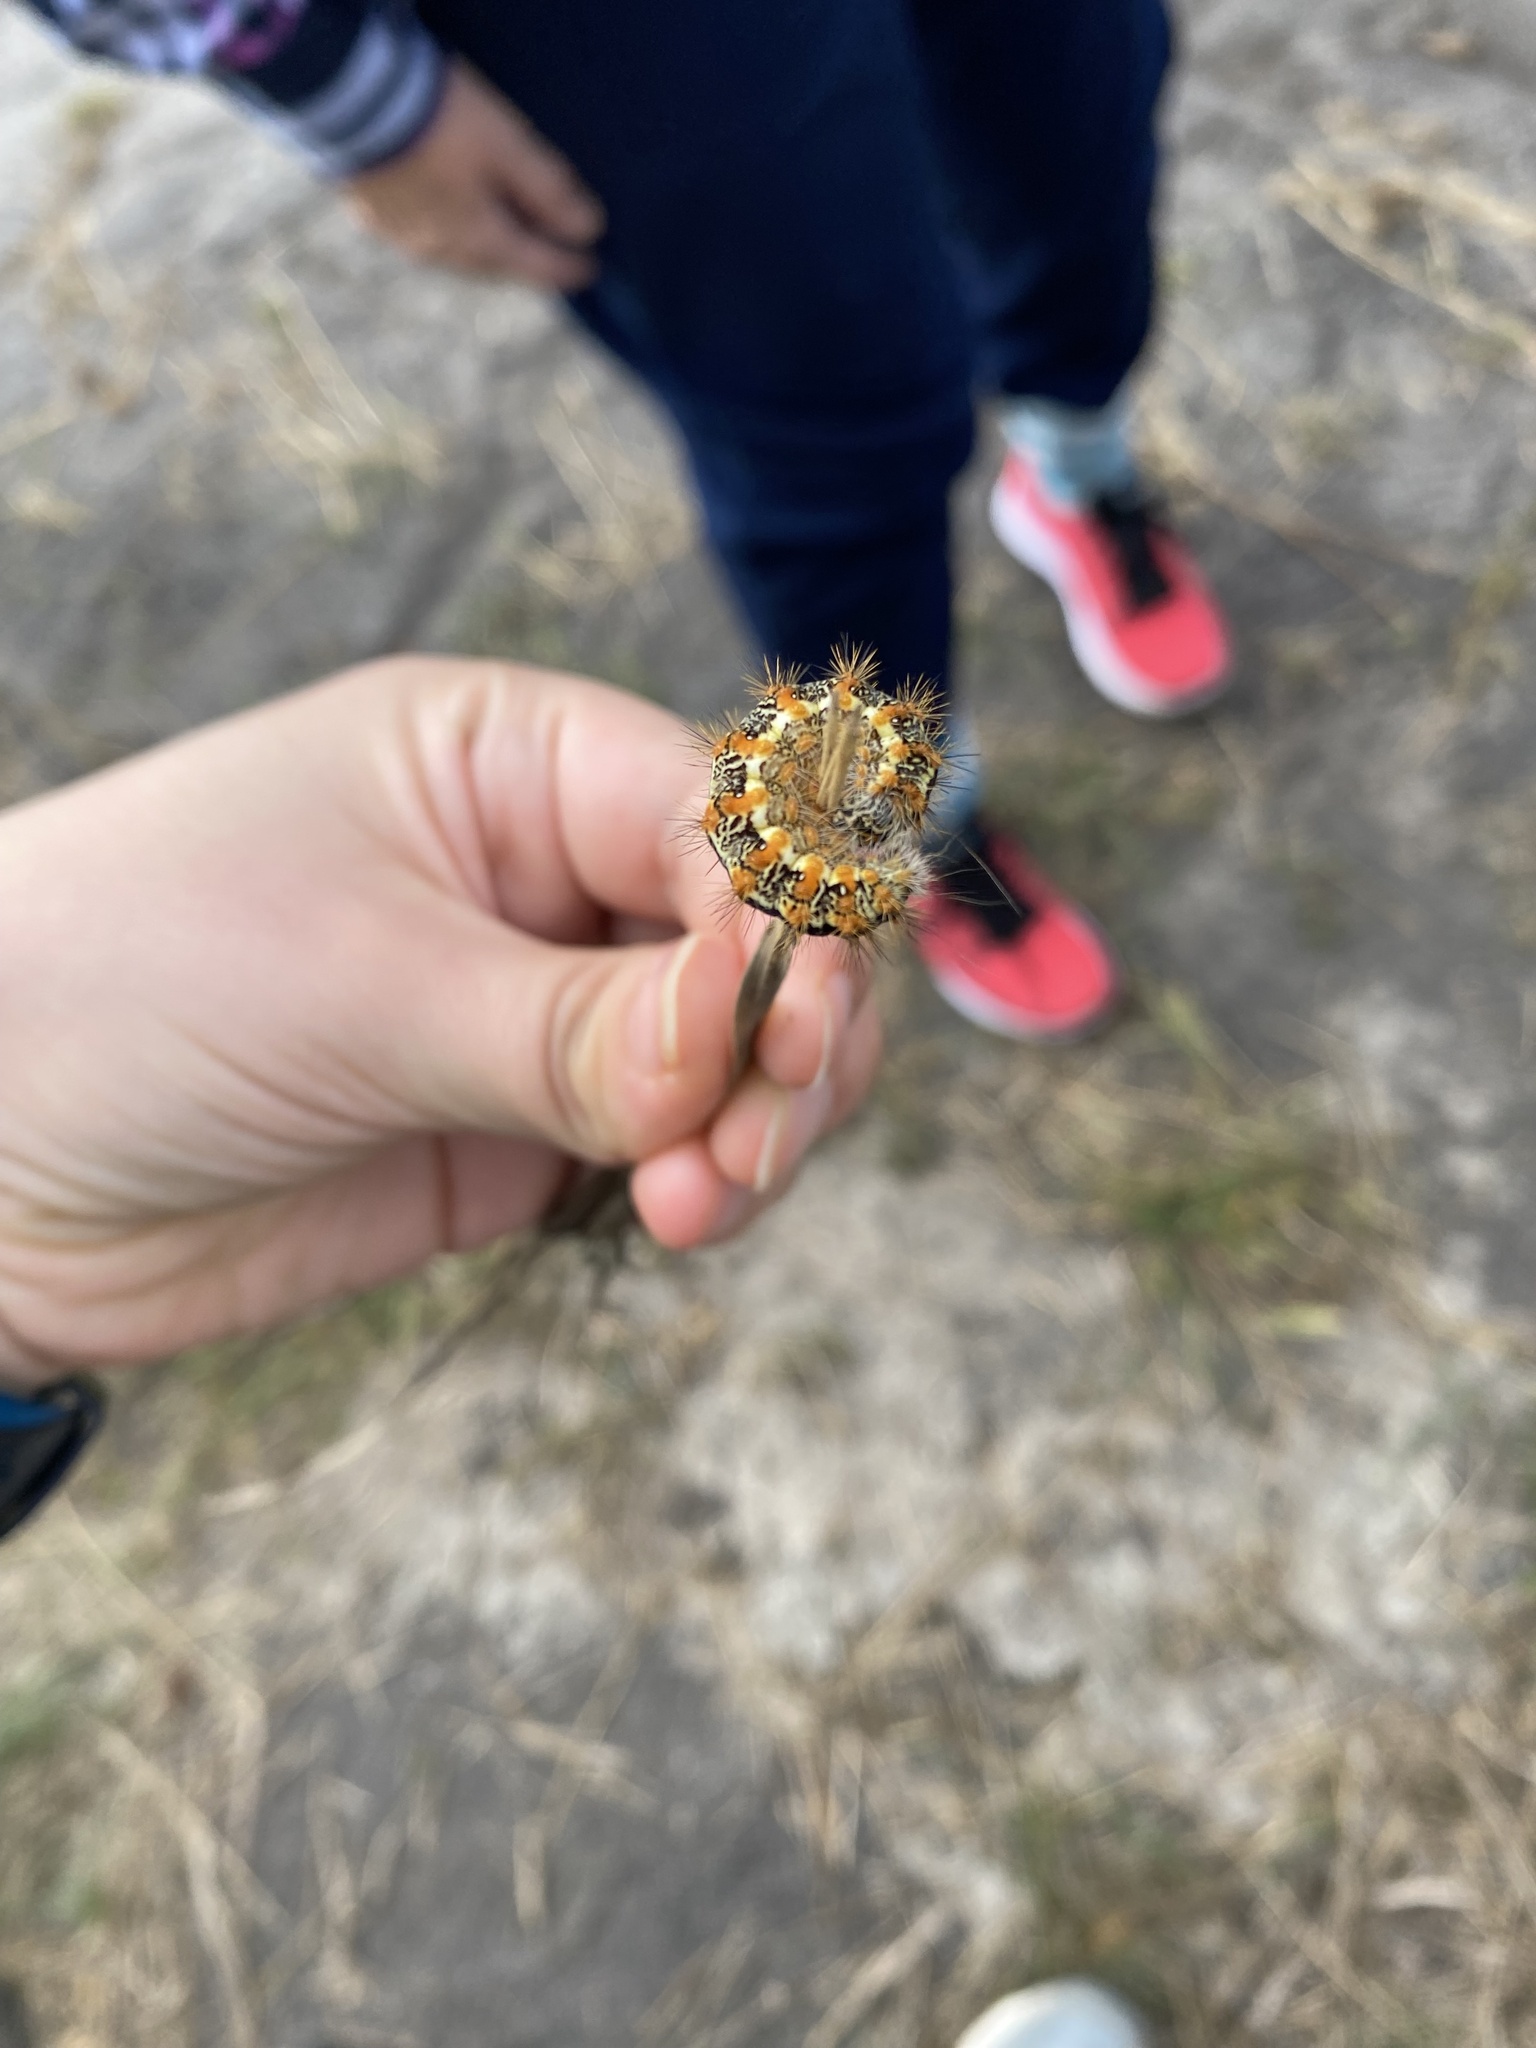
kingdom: Animalia
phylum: Arthropoda
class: Insecta
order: Lepidoptera
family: Noctuidae
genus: Acronicta
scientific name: Acronicta insularis
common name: Henry's marsh moth
